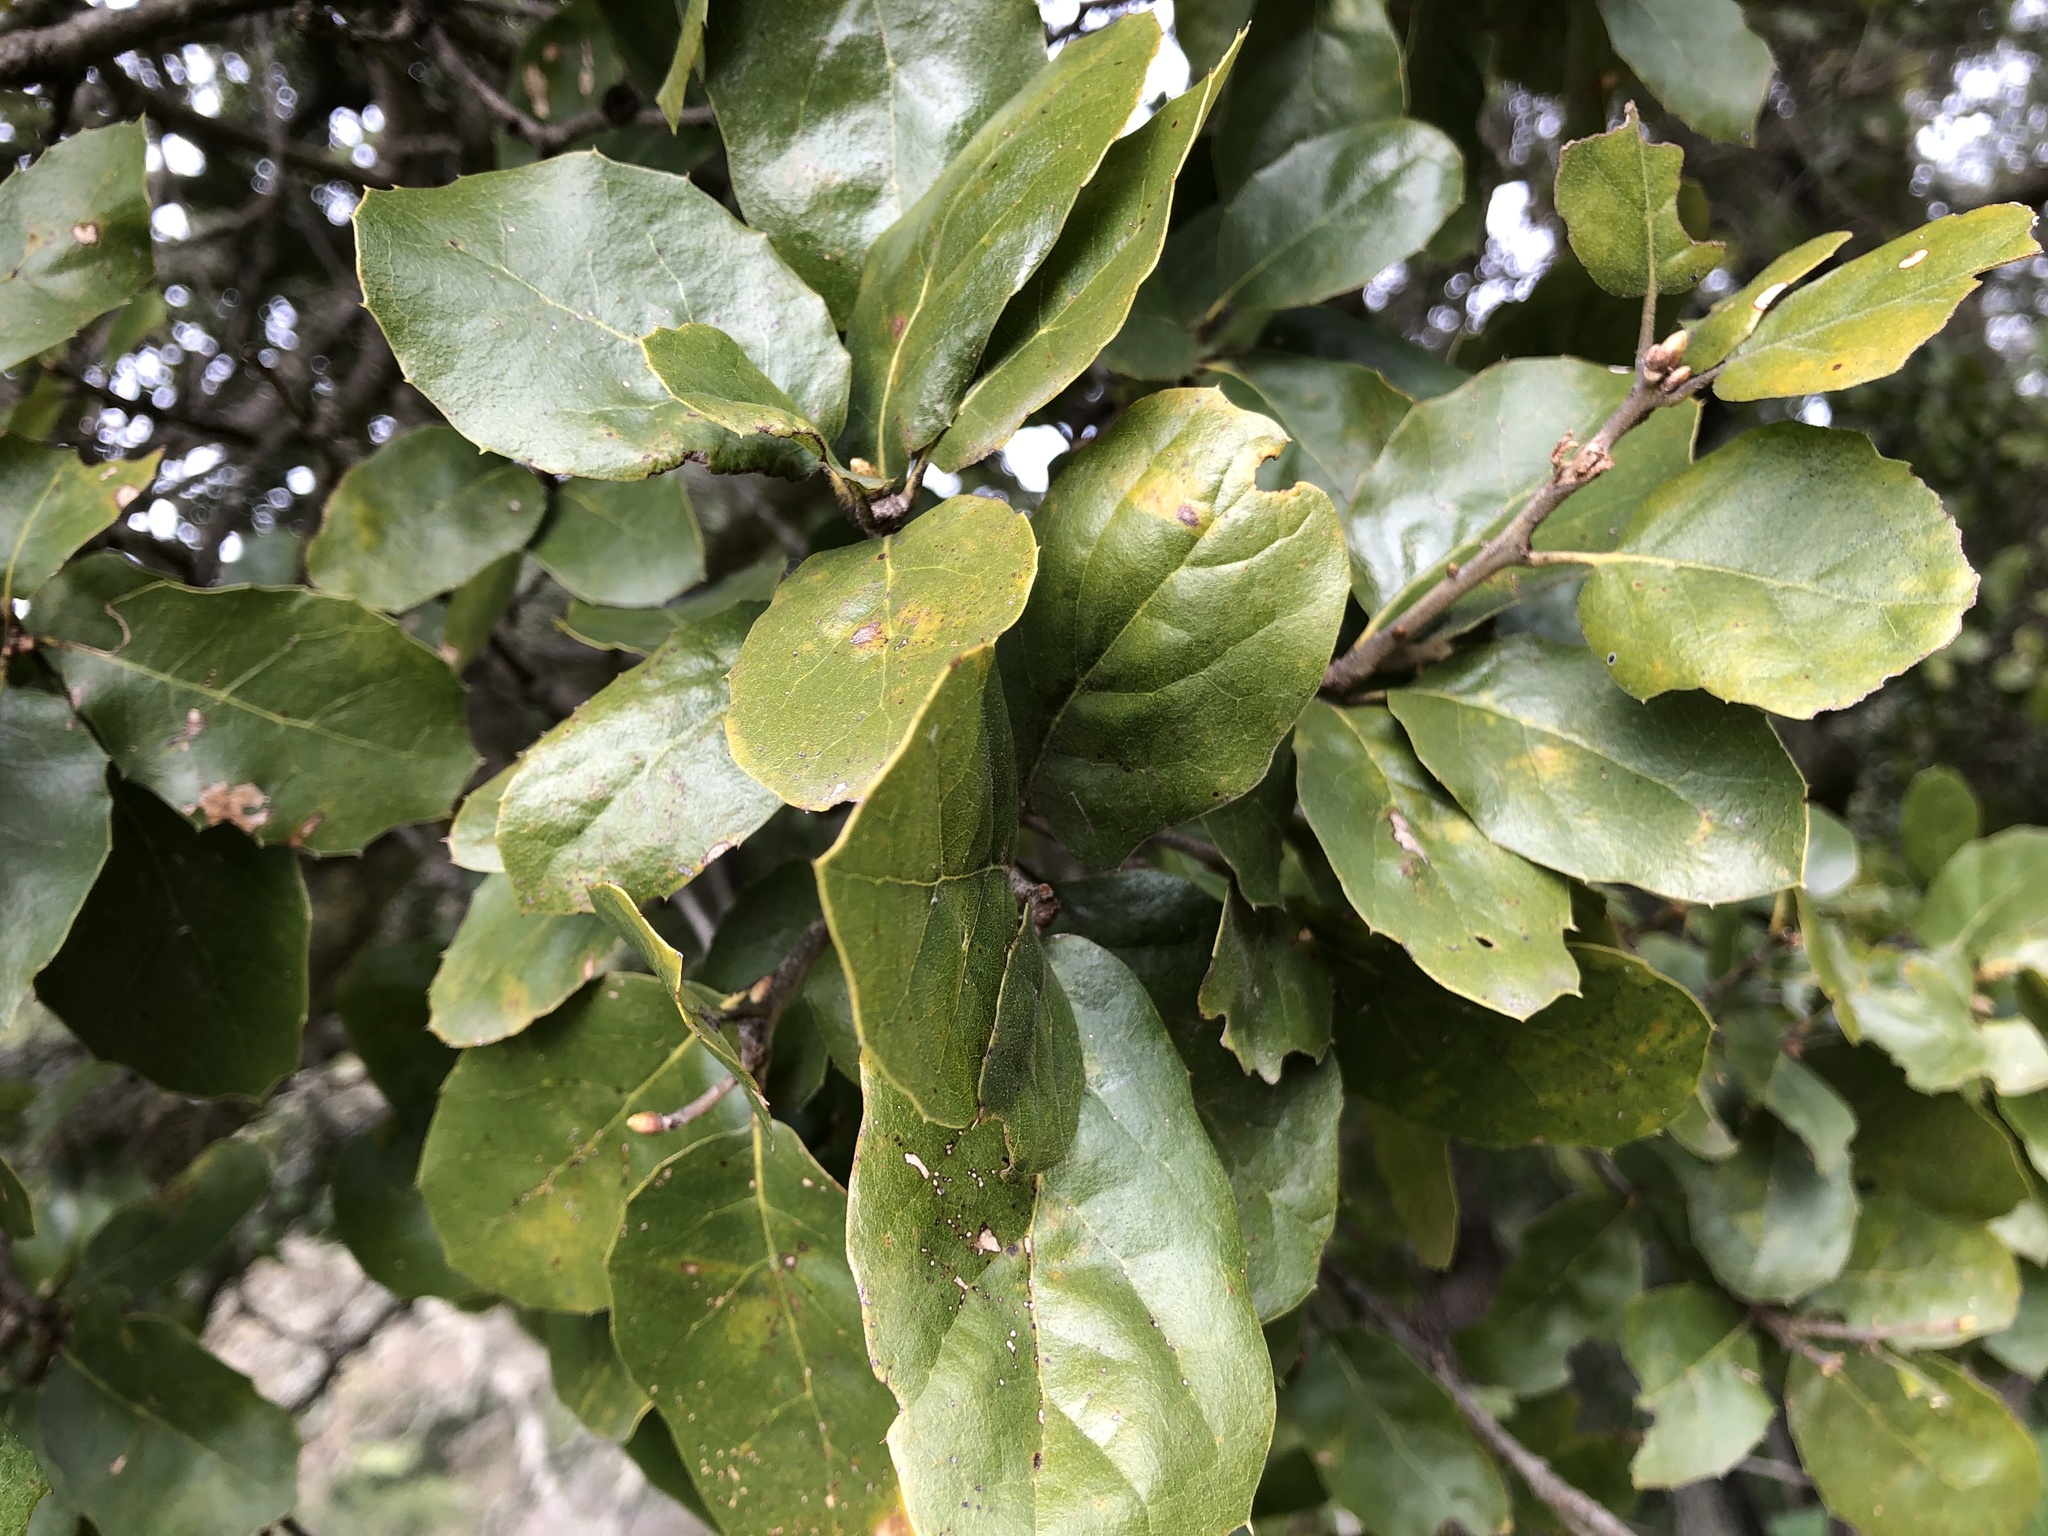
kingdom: Plantae
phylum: Tracheophyta
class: Magnoliopsida
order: Fagales
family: Fagaceae
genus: Quercus
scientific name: Quercus agrifolia
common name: California live oak
